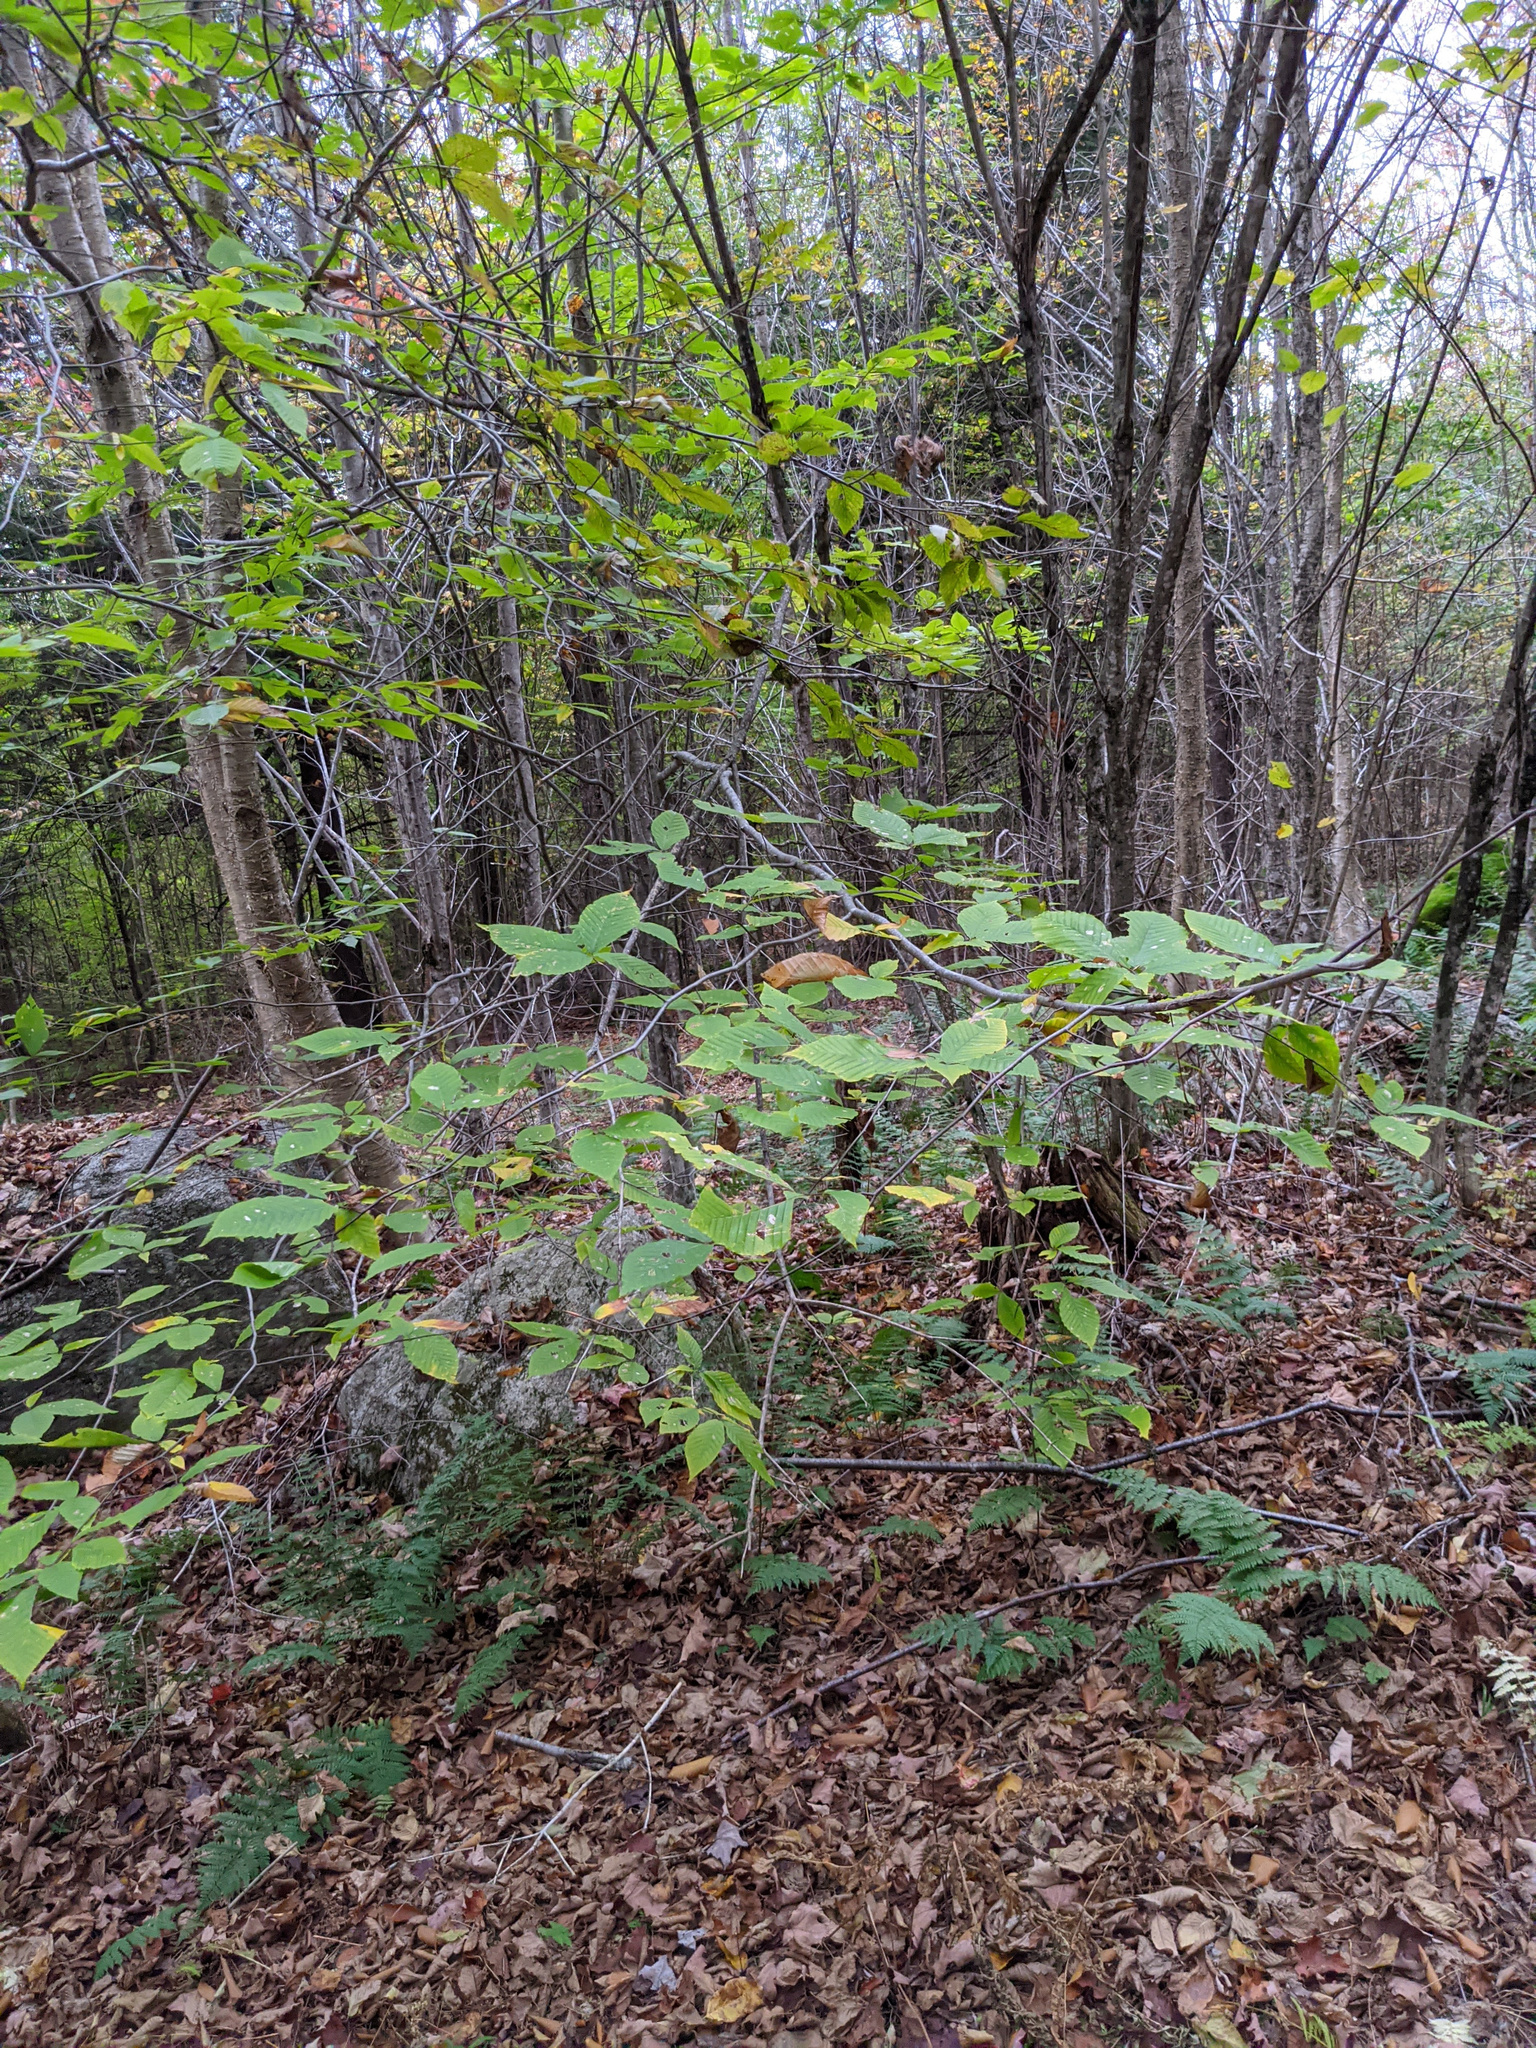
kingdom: Plantae
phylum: Tracheophyta
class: Magnoliopsida
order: Fagales
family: Fagaceae
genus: Fagus
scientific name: Fagus grandifolia
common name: American beech
